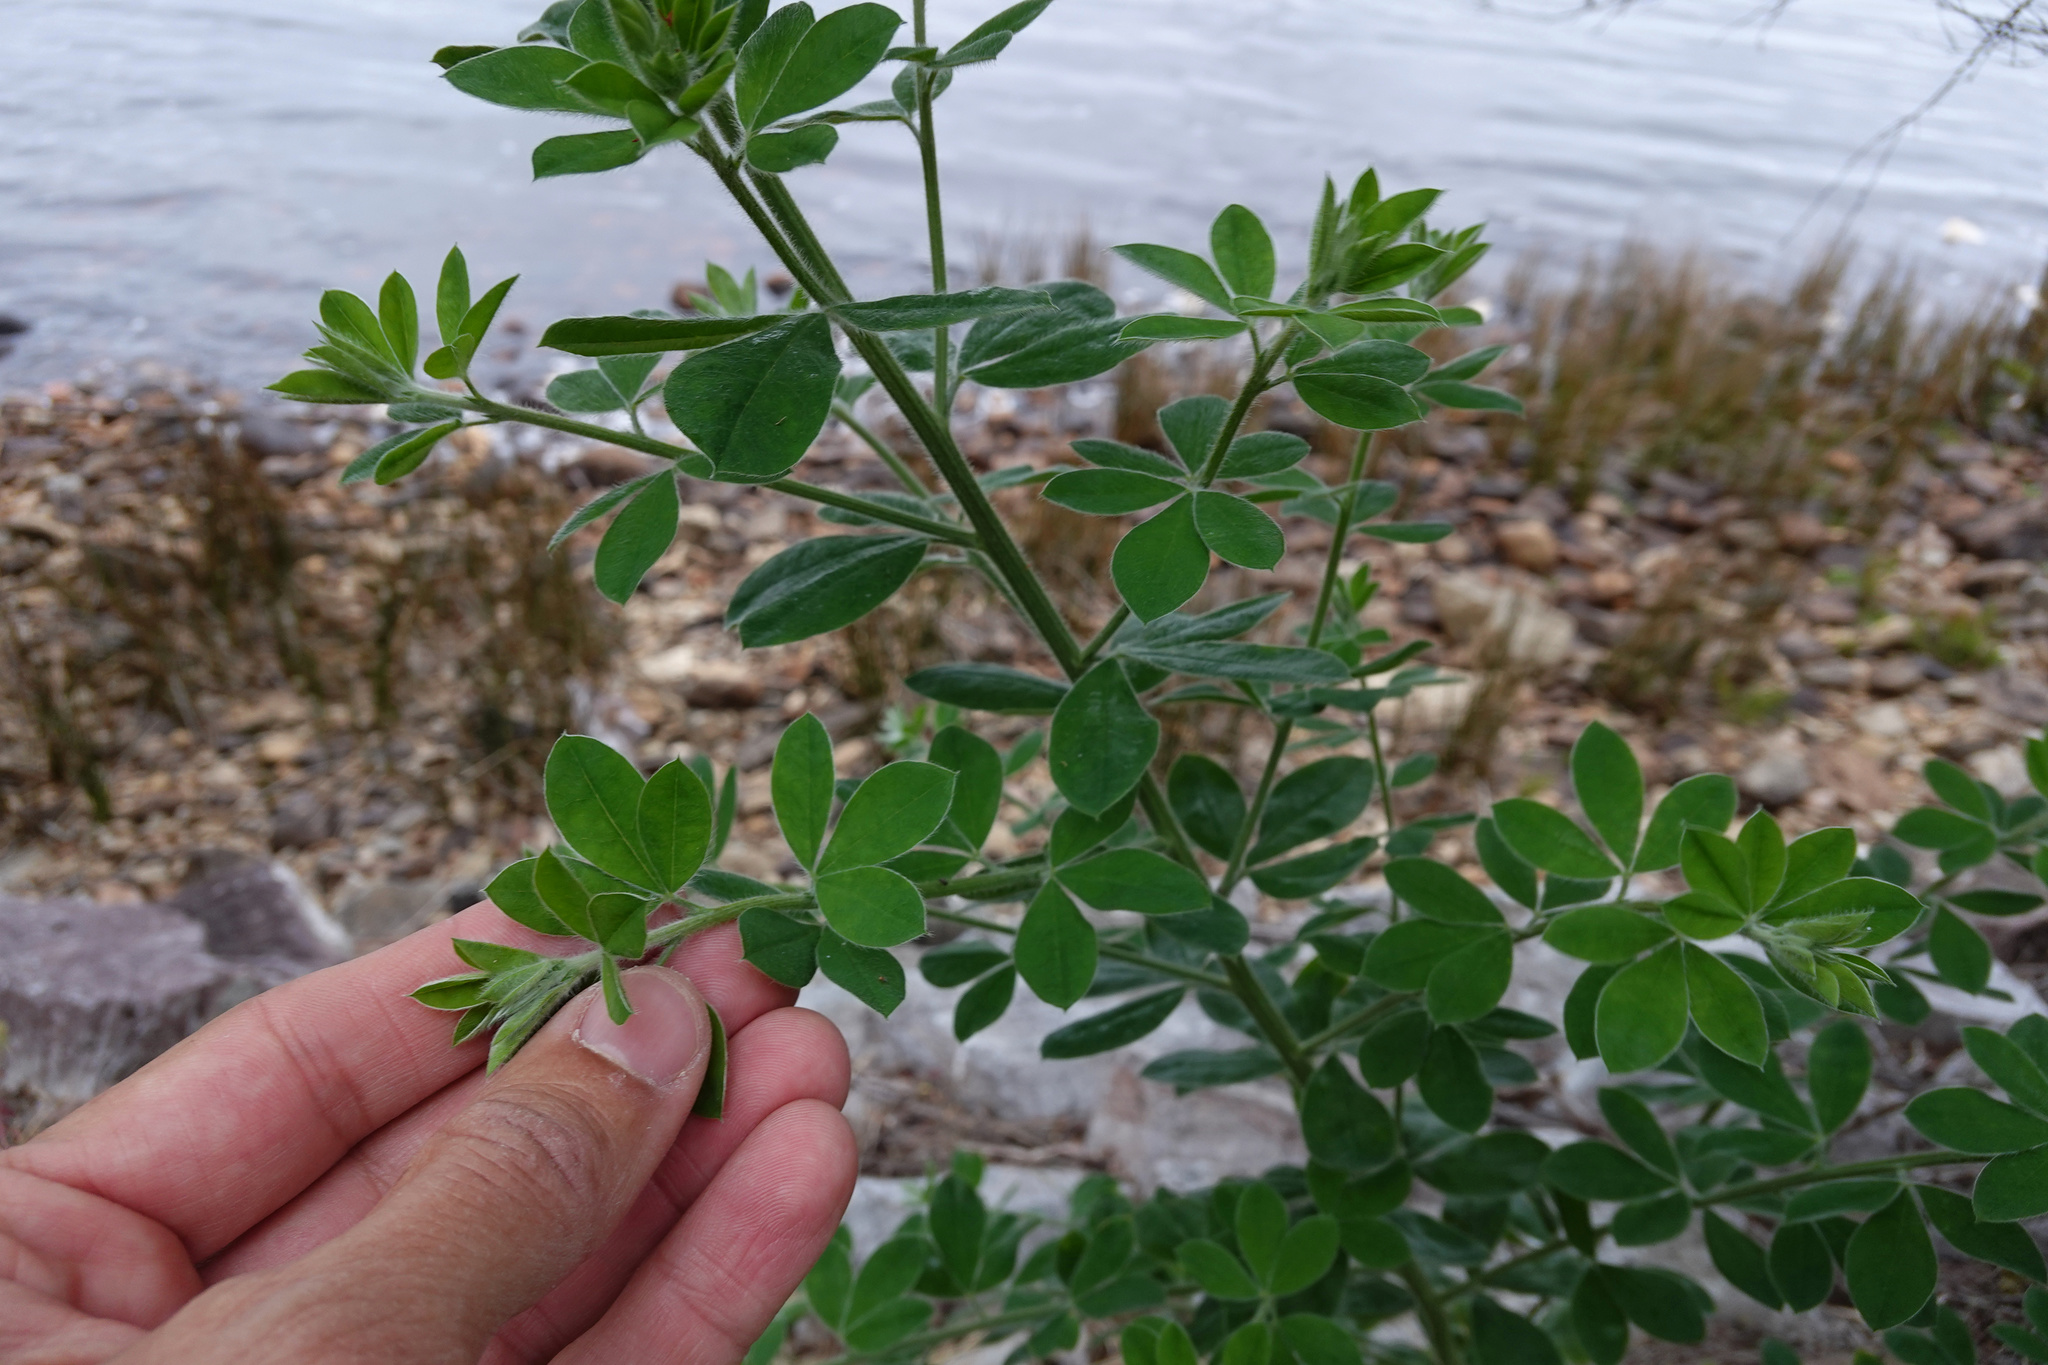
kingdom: Plantae
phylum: Tracheophyta
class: Magnoliopsida
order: Fabales
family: Fabaceae
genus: Genista
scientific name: Genista monspessulana
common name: Montpellier broom
